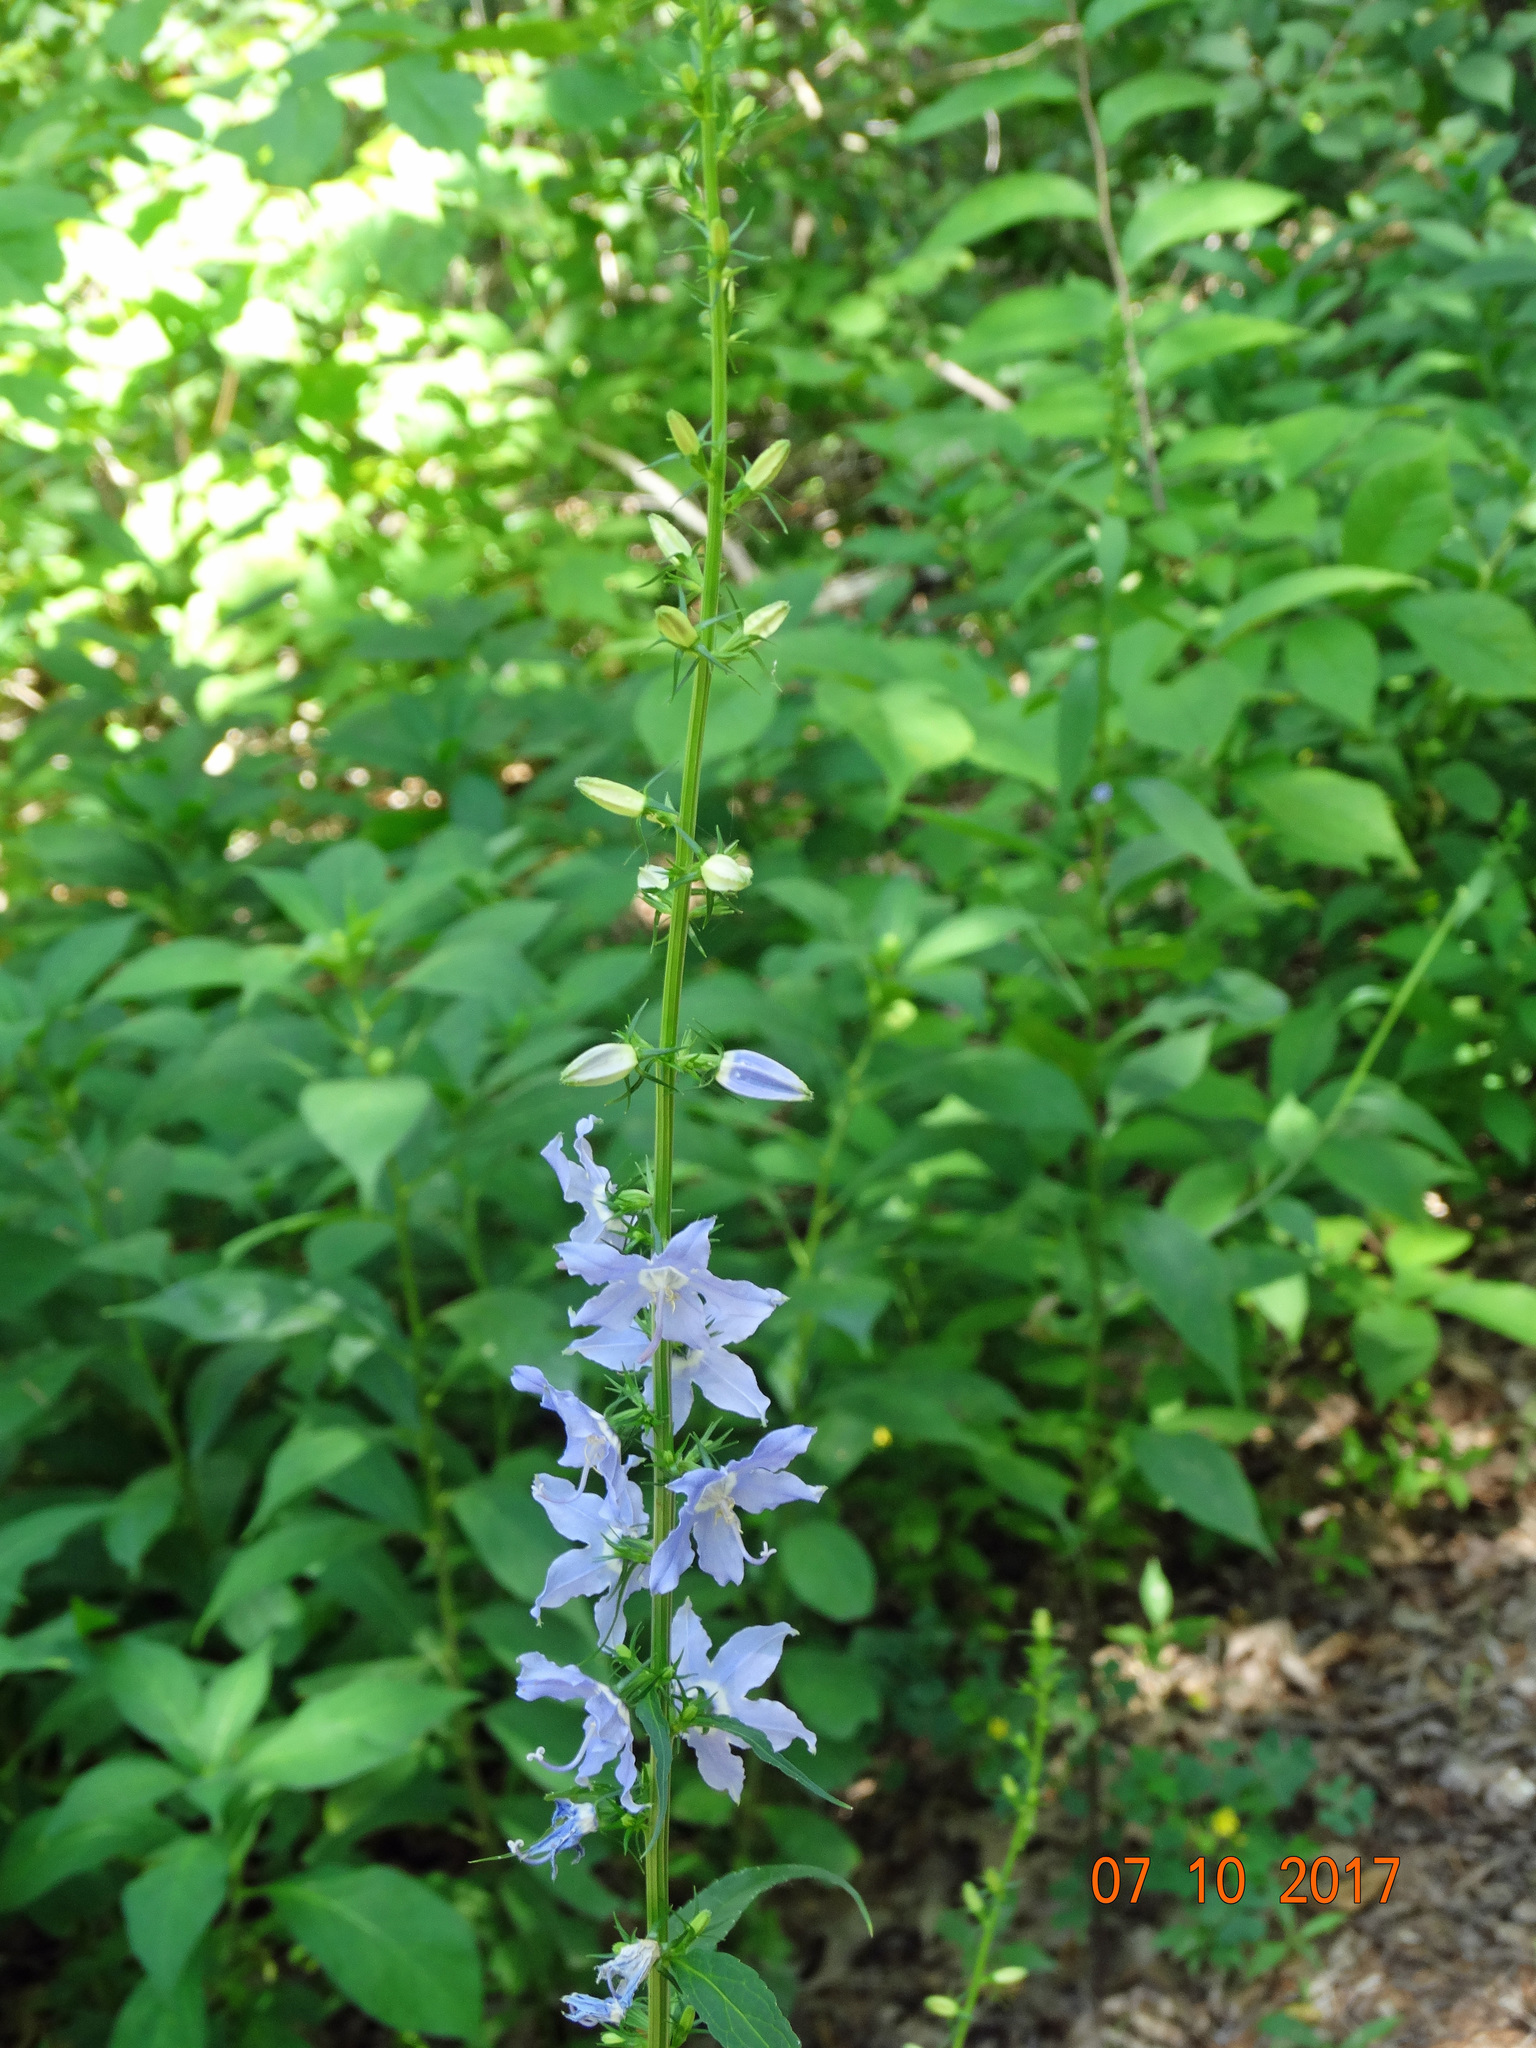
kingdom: Plantae
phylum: Tracheophyta
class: Magnoliopsida
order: Asterales
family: Campanulaceae
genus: Campanulastrum
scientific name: Campanulastrum americanum
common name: American bellflower
